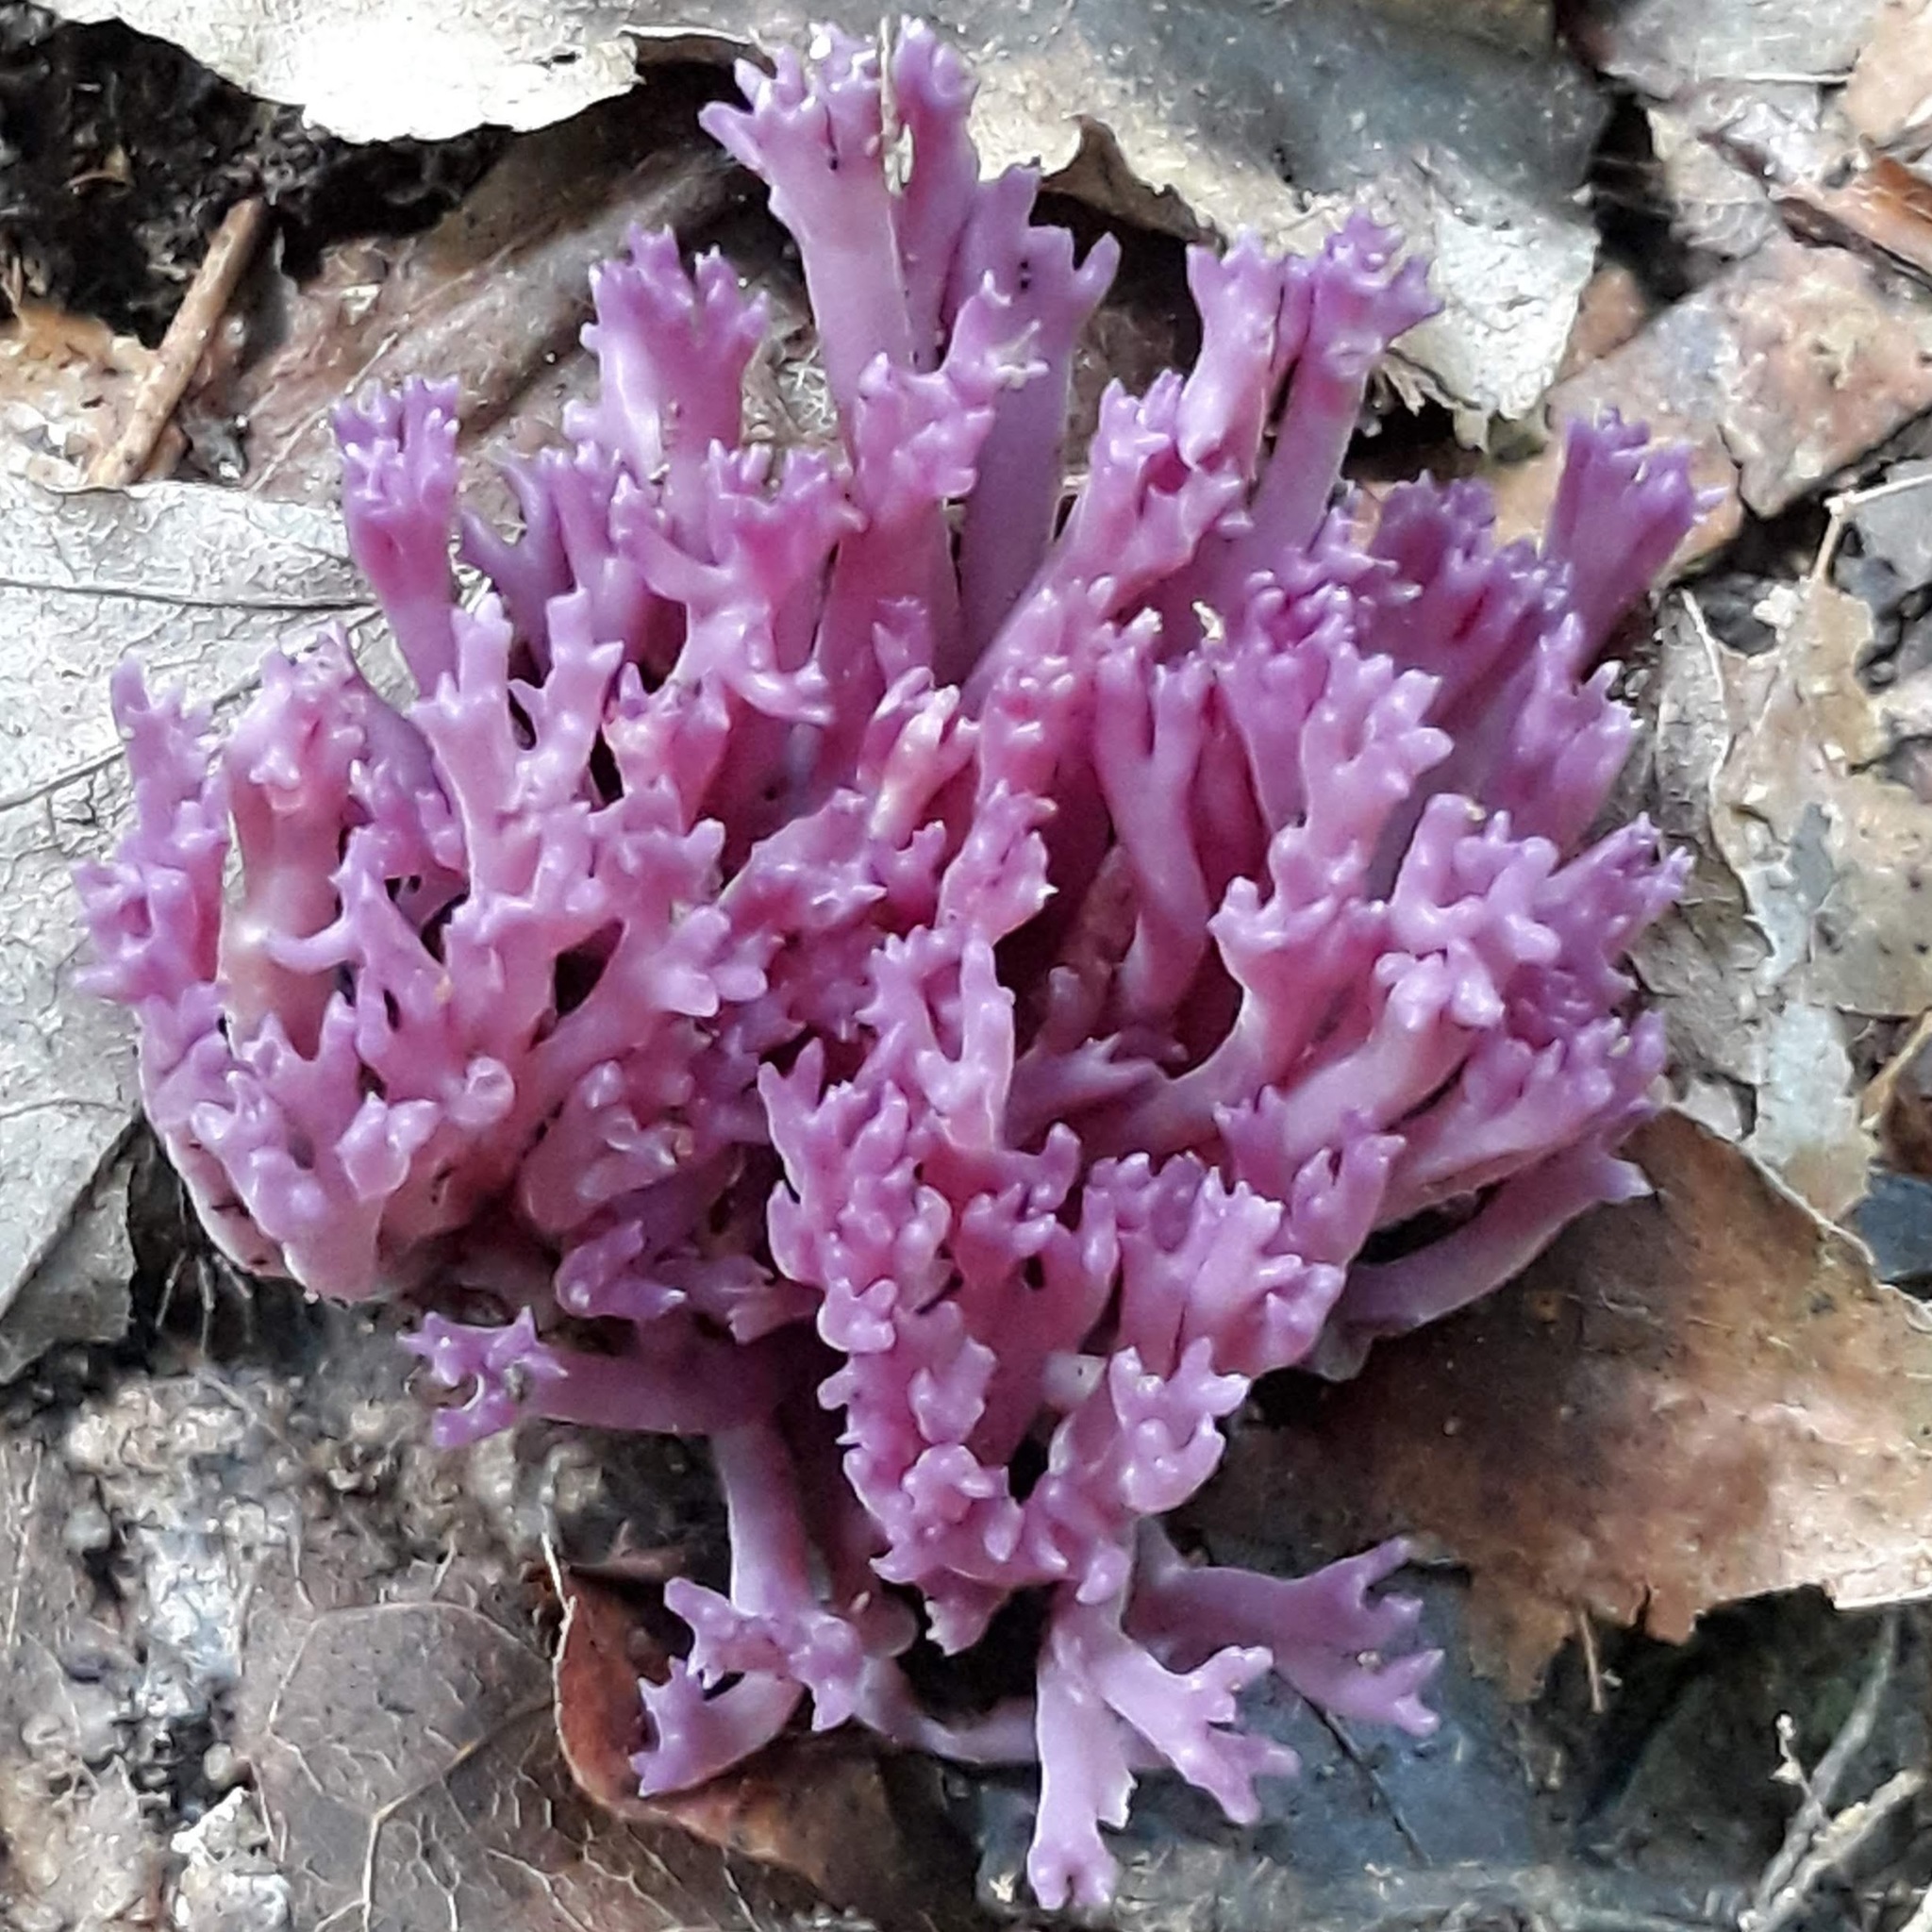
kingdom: Fungi
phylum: Basidiomycota
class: Agaricomycetes
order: Agaricales
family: Clavariaceae
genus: Clavaria
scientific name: Clavaria zollingeri
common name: Violet coral
